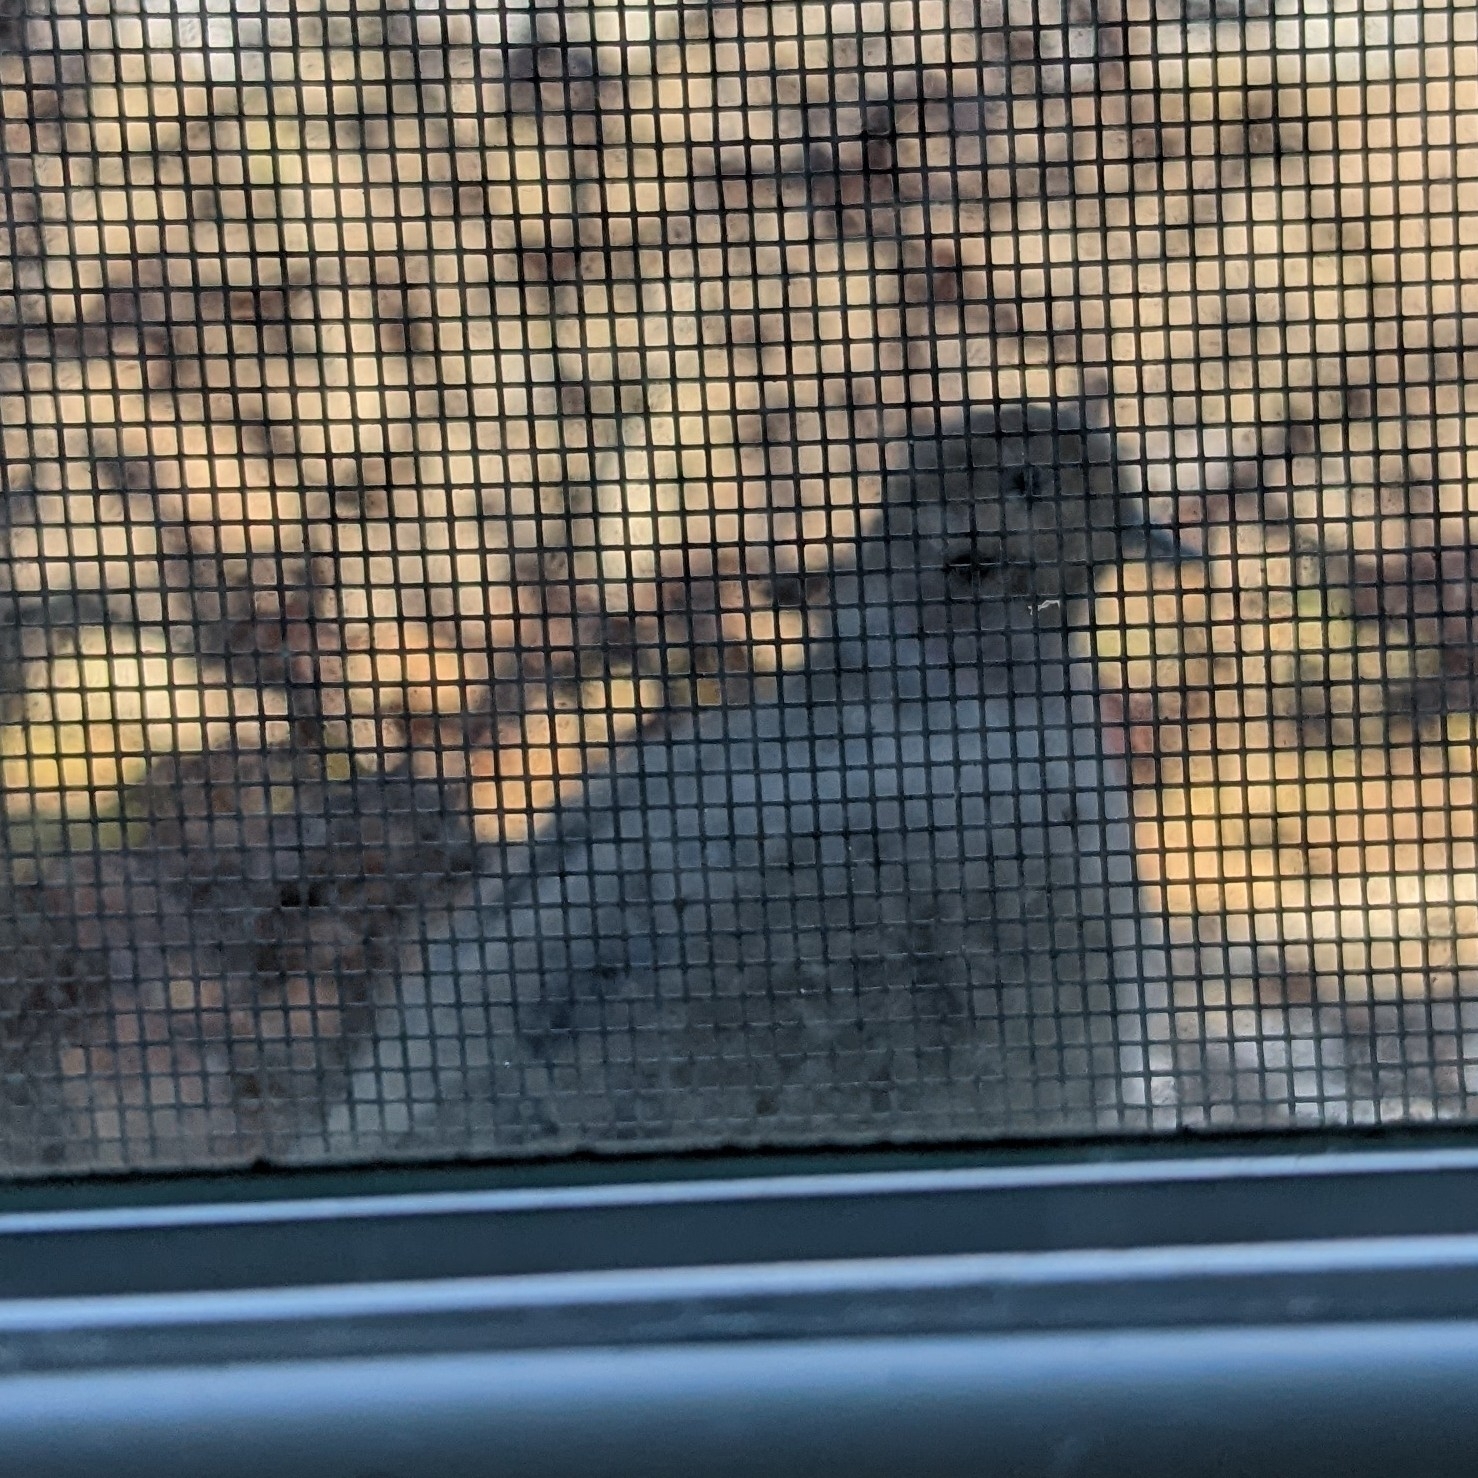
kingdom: Animalia
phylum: Chordata
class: Aves
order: Columbiformes
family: Columbidae
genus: Zenaida
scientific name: Zenaida macroura
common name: Mourning dove
